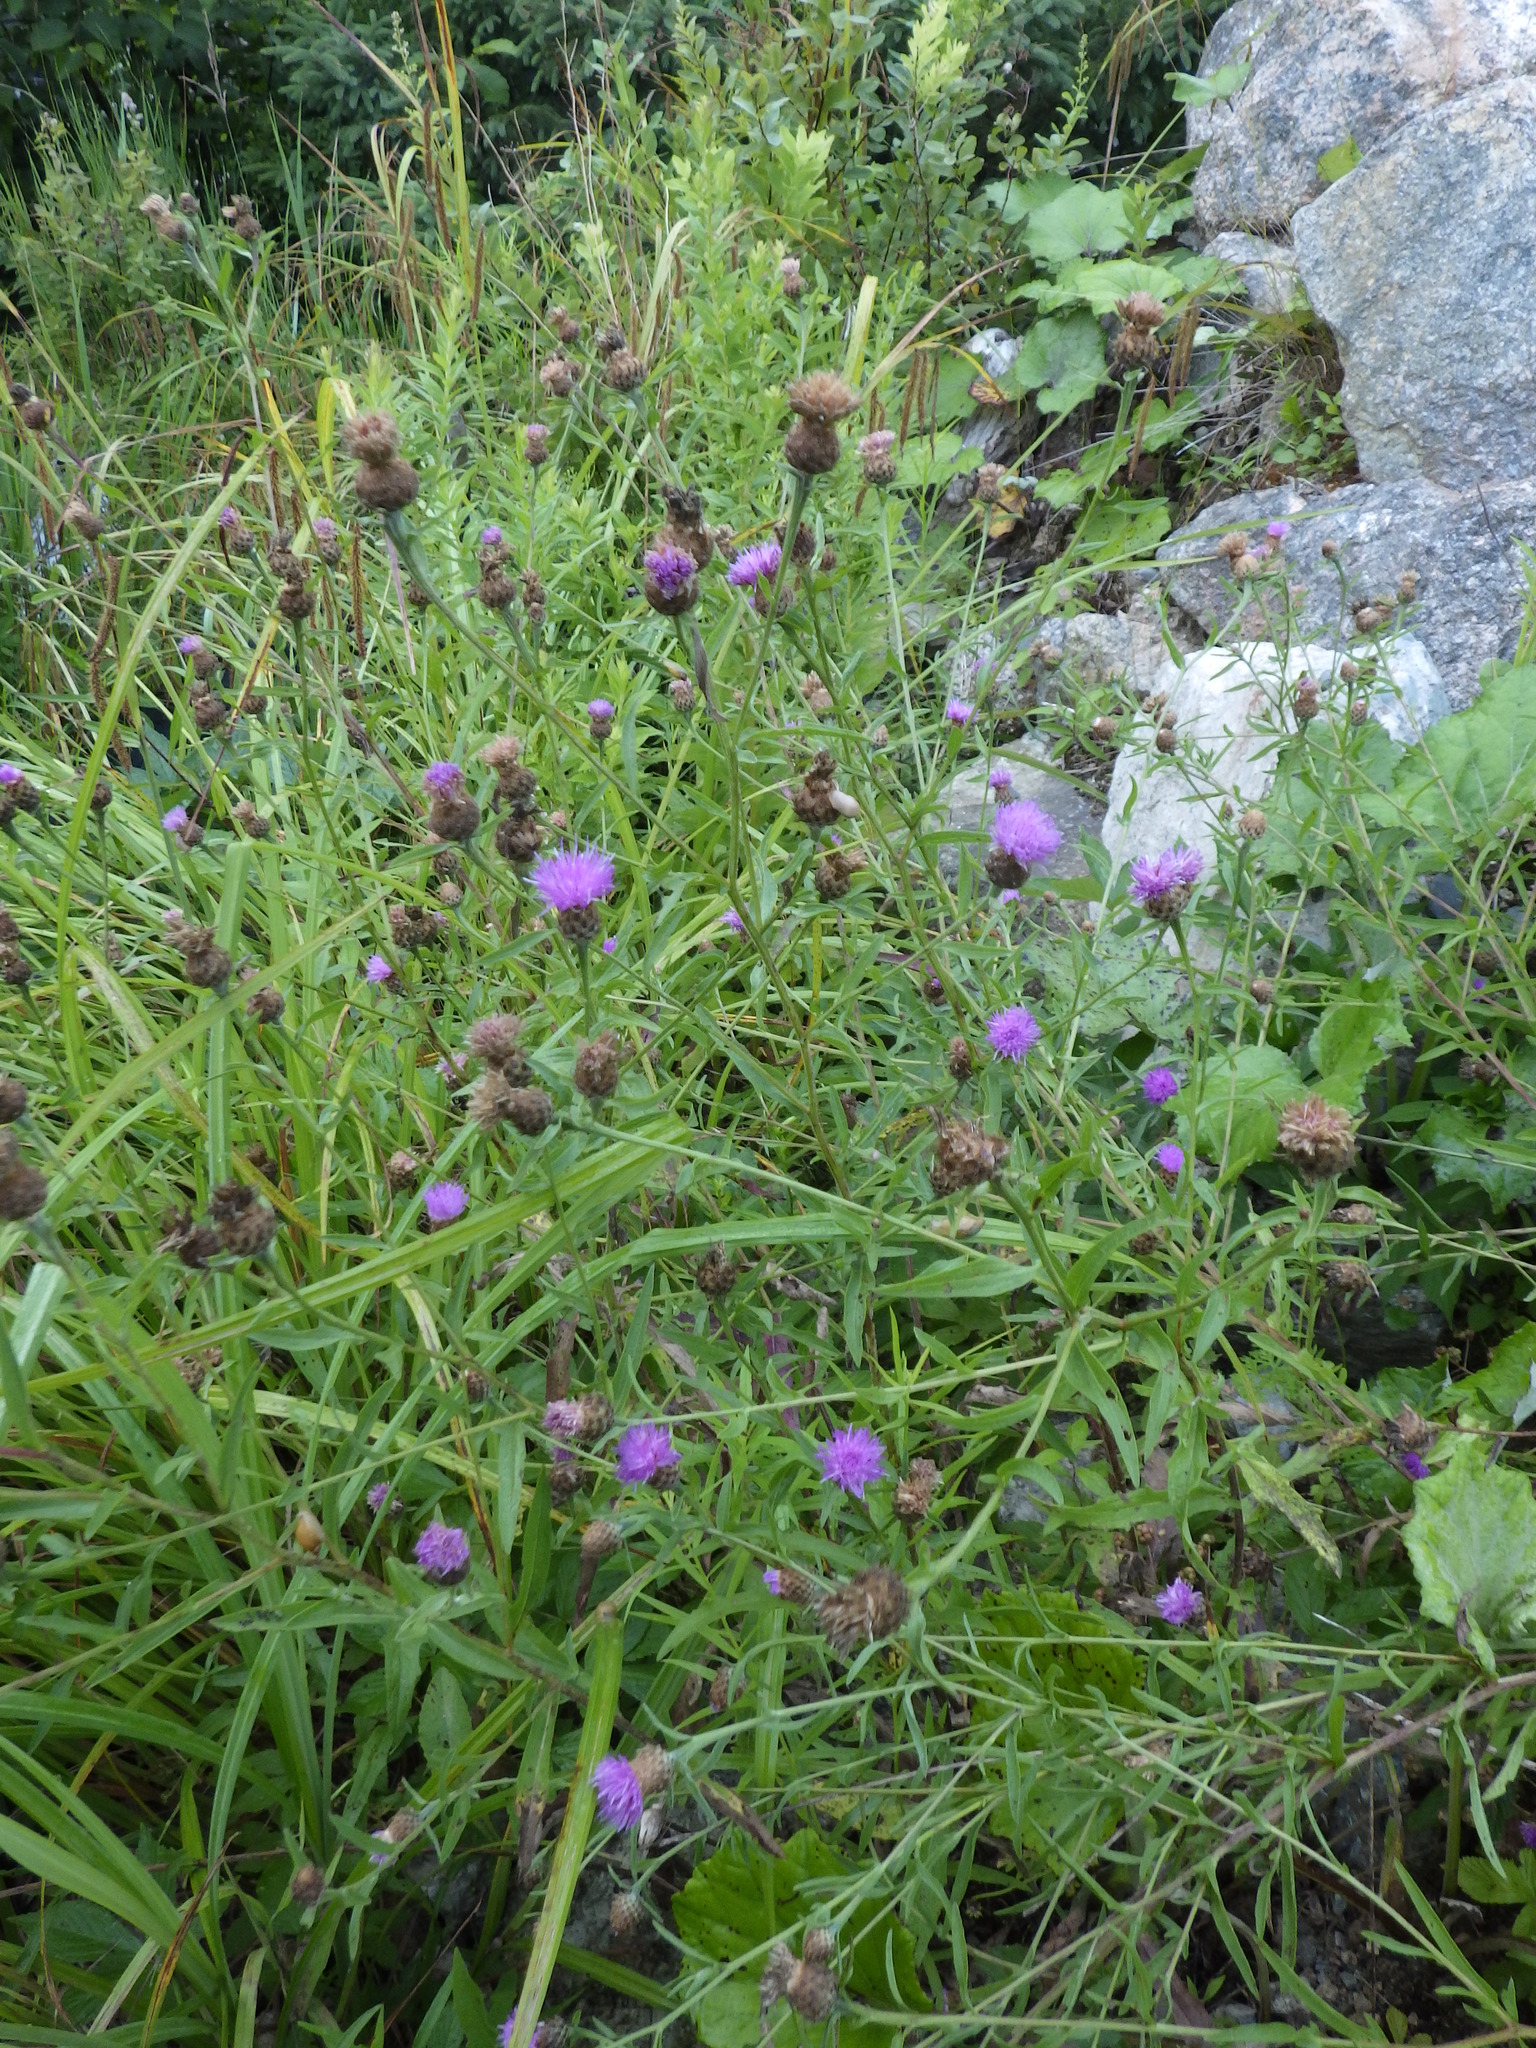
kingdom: Plantae
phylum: Tracheophyta
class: Magnoliopsida
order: Asterales
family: Asteraceae
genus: Centaurea
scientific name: Centaurea nigra
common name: Lesser knapweed
